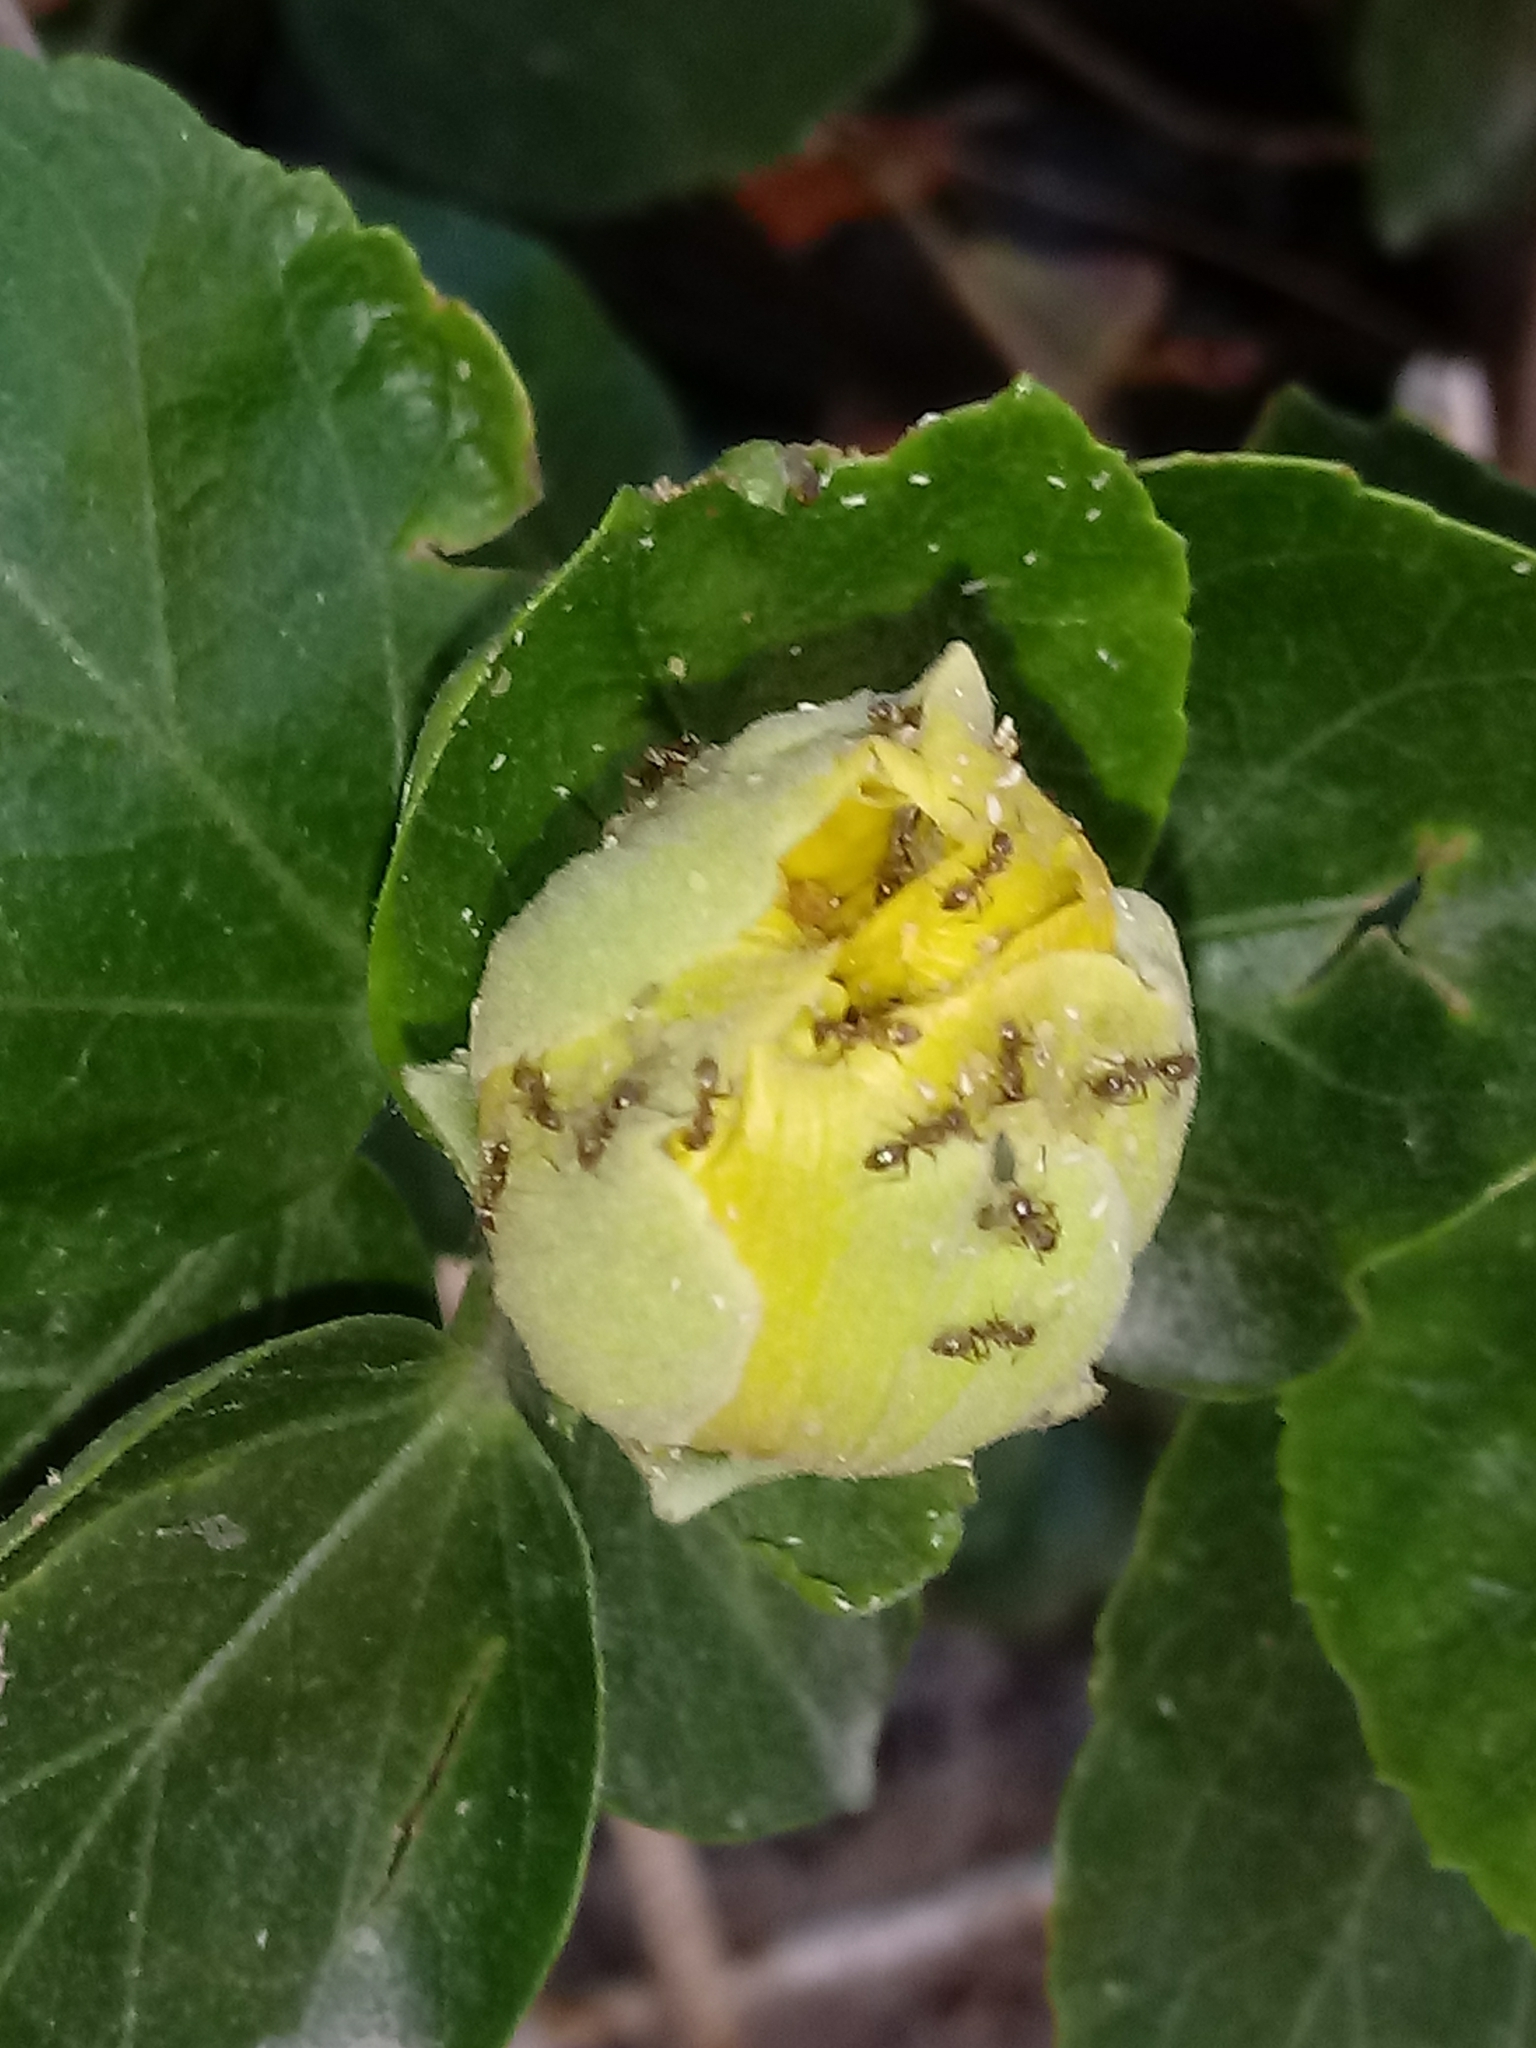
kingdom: Animalia
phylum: Arthropoda
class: Insecta
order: Hymenoptera
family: Formicidae
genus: Linepithema
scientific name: Linepithema humile
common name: Argentine ant
